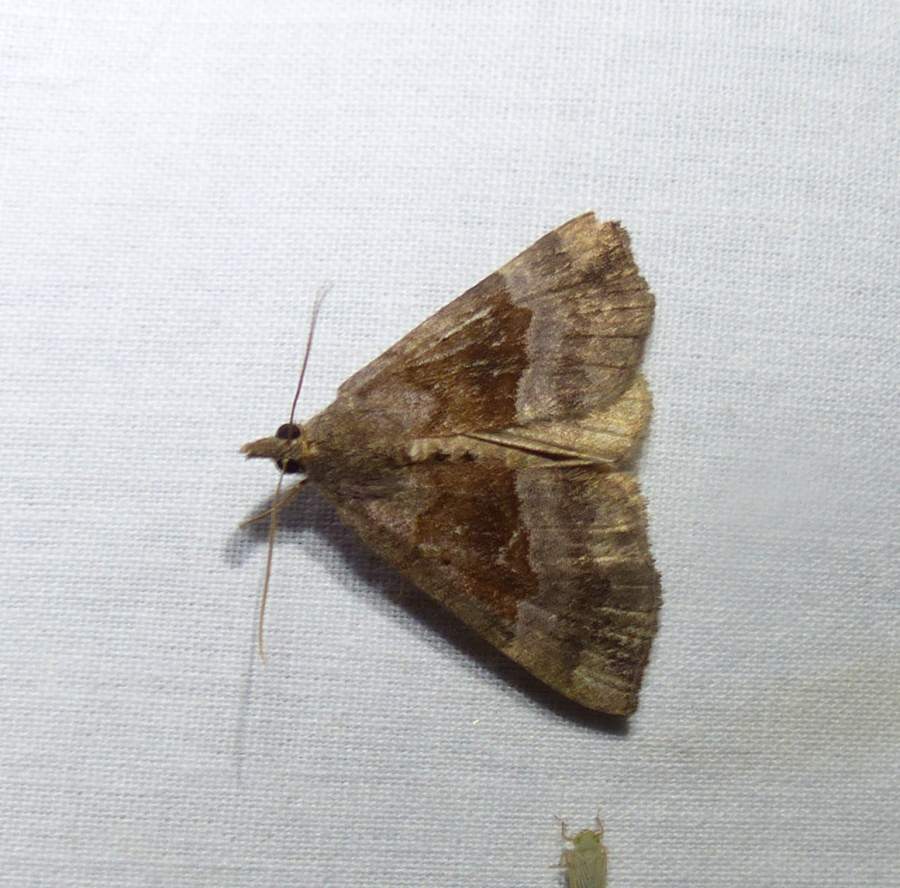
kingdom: Animalia
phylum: Arthropoda
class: Insecta
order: Lepidoptera
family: Erebidae
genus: Hypena
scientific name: Hypena madefactalis
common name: Gray-edged snout
